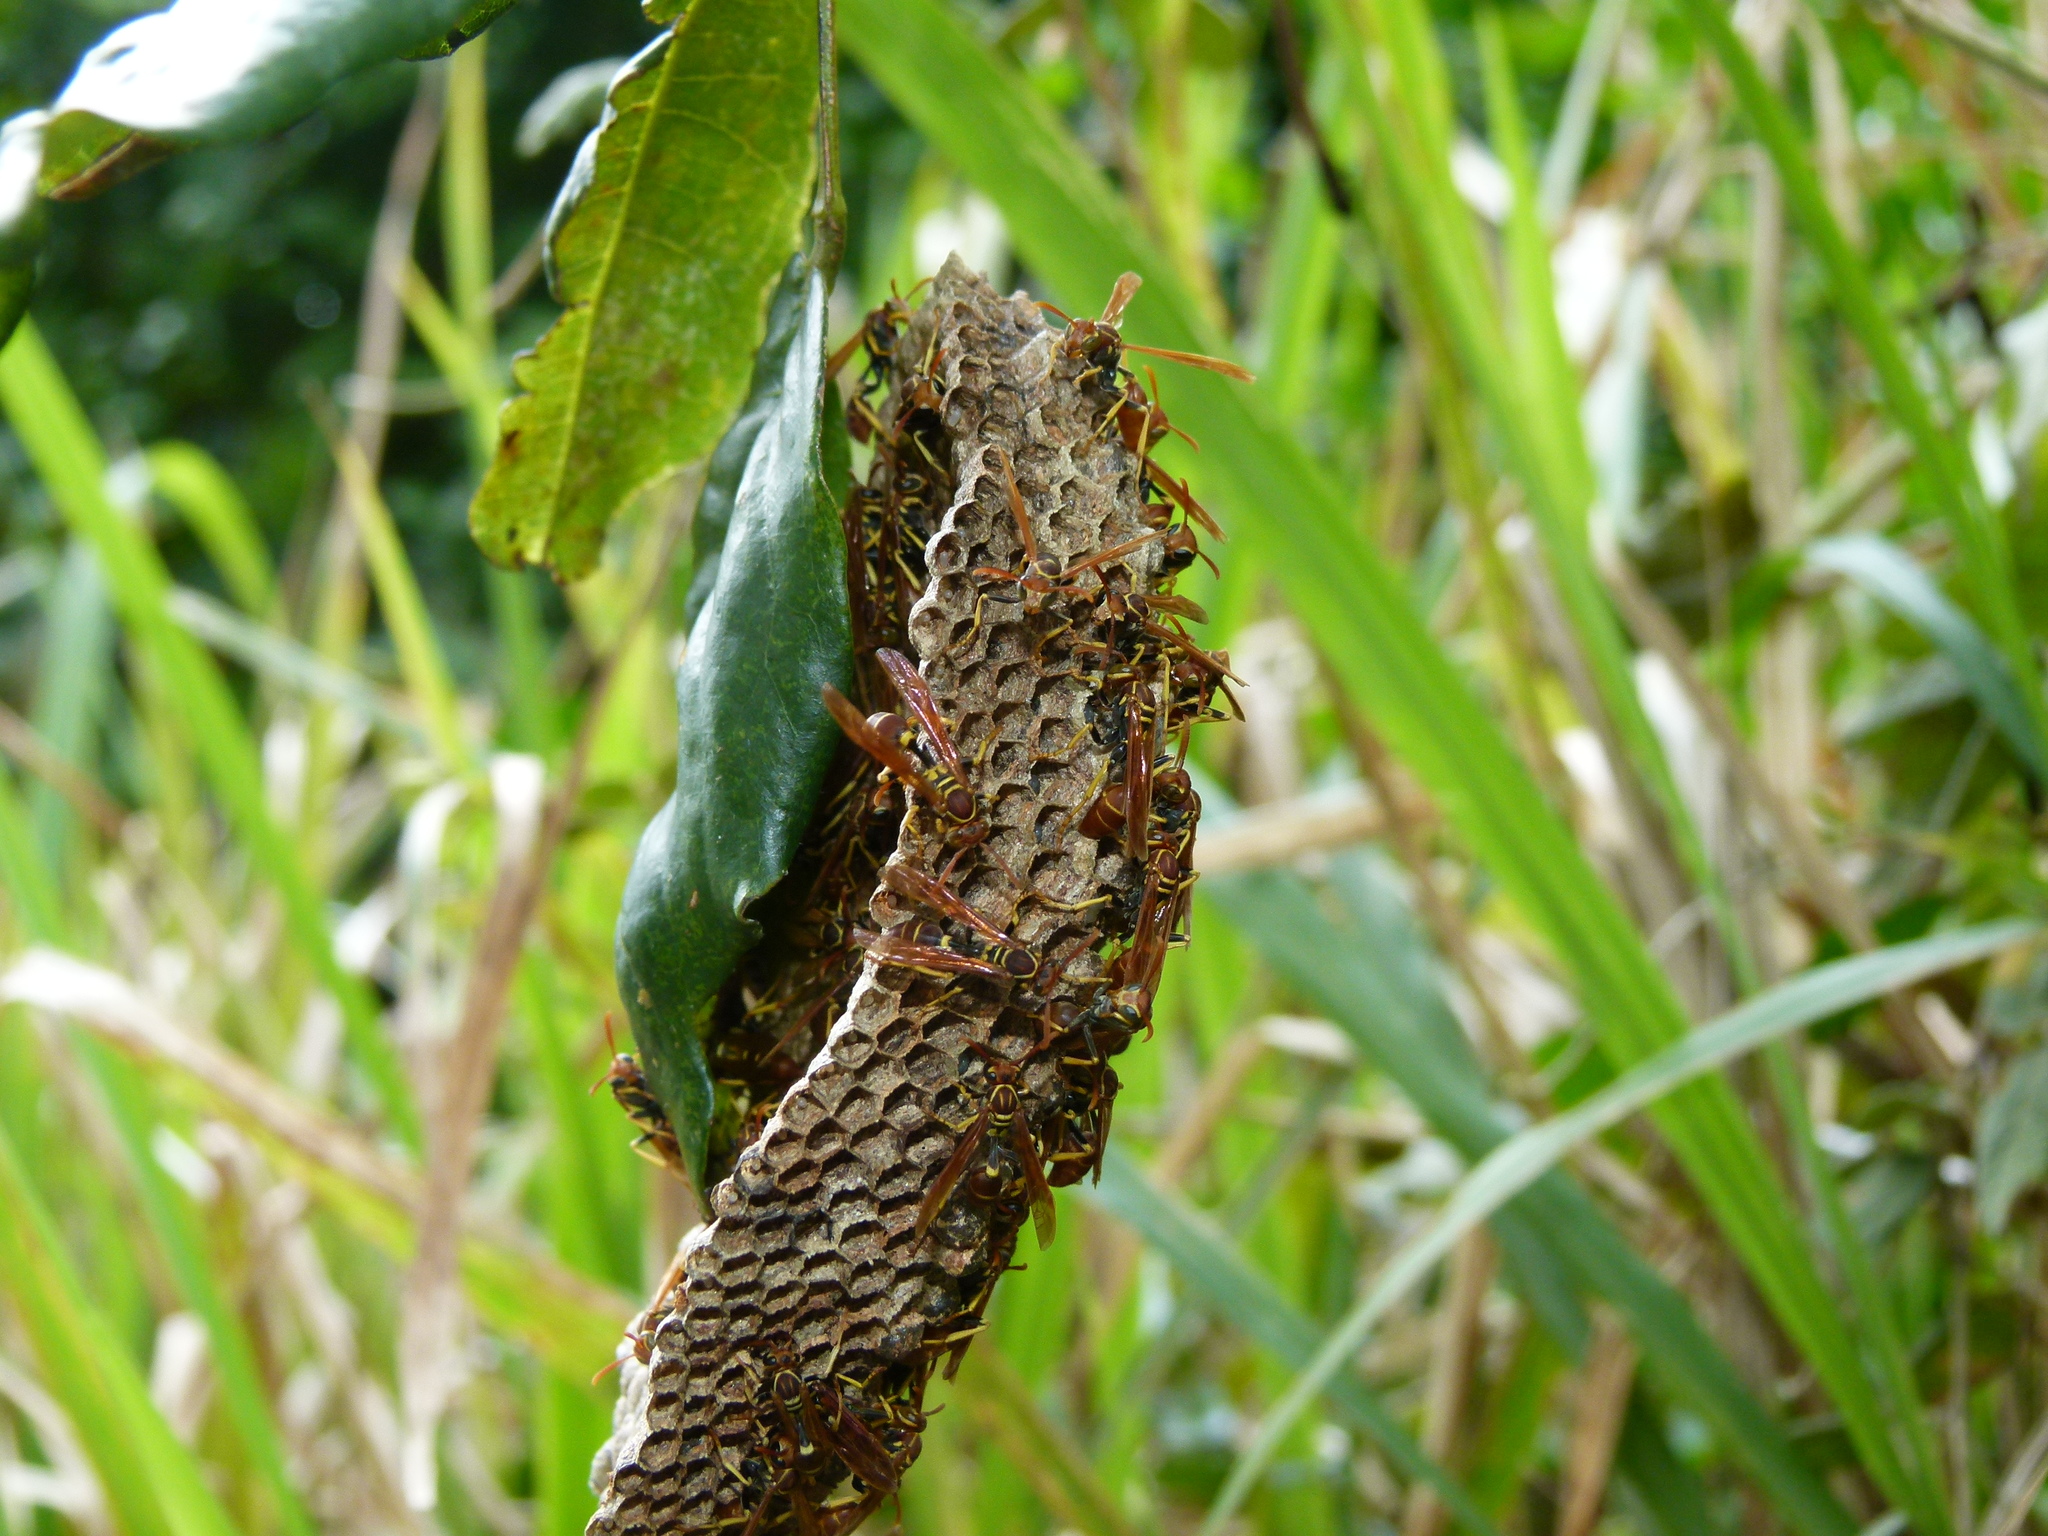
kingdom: Animalia
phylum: Arthropoda
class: Insecta
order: Hymenoptera
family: Vespidae
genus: Mischocyttarus
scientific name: Mischocyttarus phthisicus
